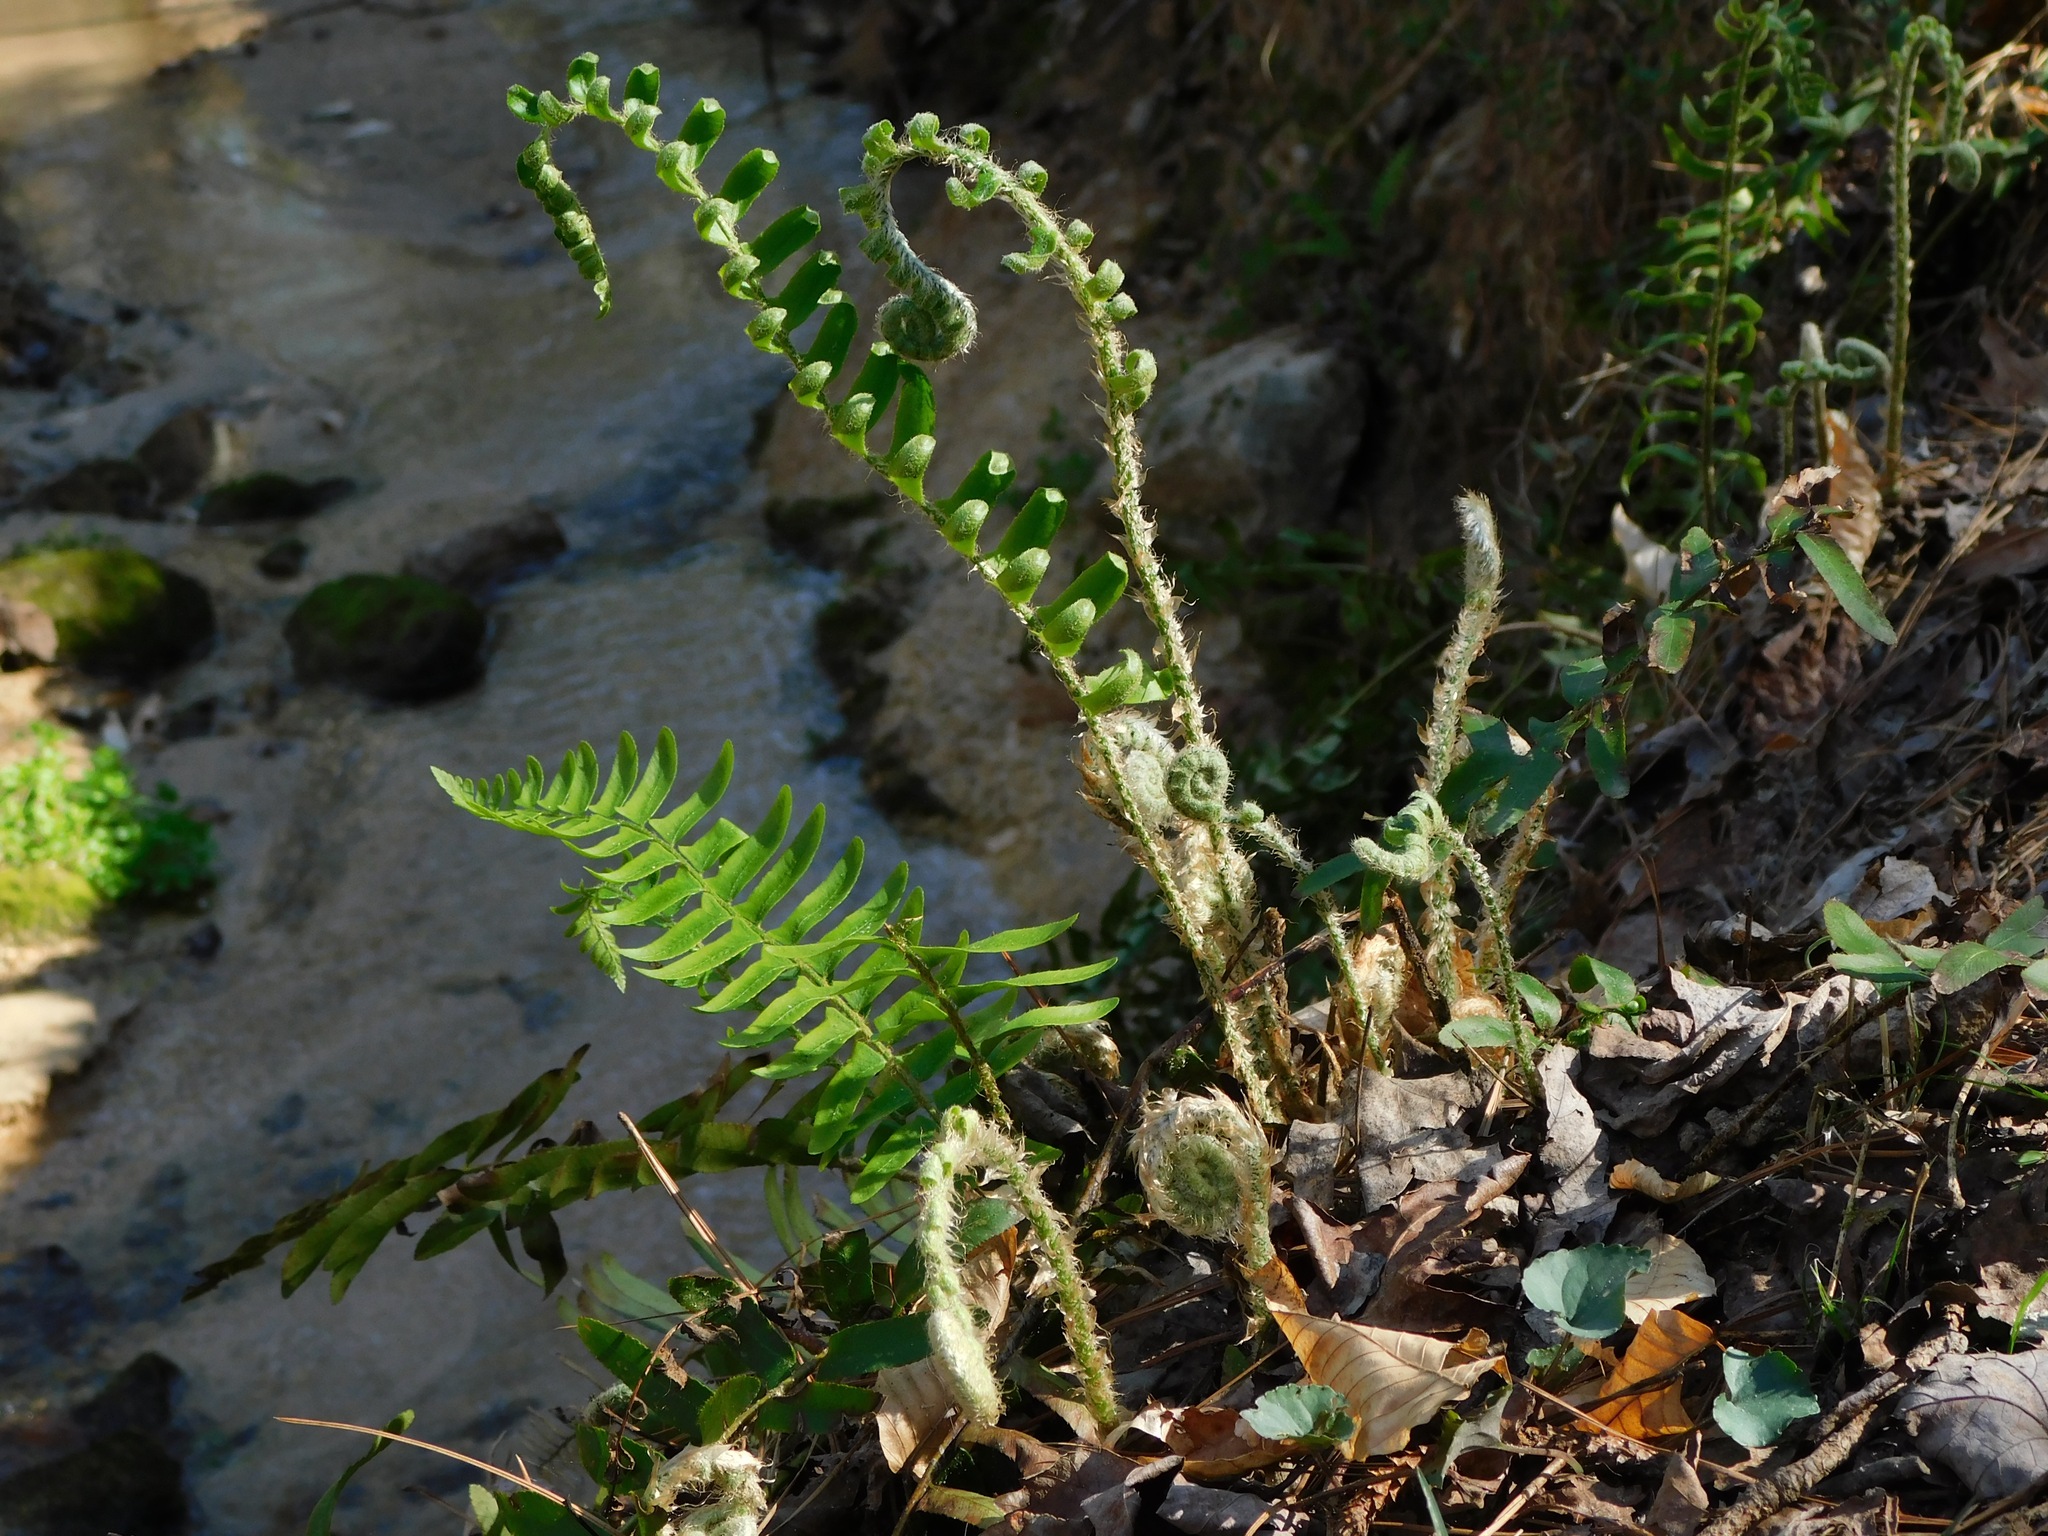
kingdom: Plantae
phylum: Tracheophyta
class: Polypodiopsida
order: Polypodiales
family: Dryopteridaceae
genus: Polystichum
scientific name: Polystichum acrostichoides
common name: Christmas fern
